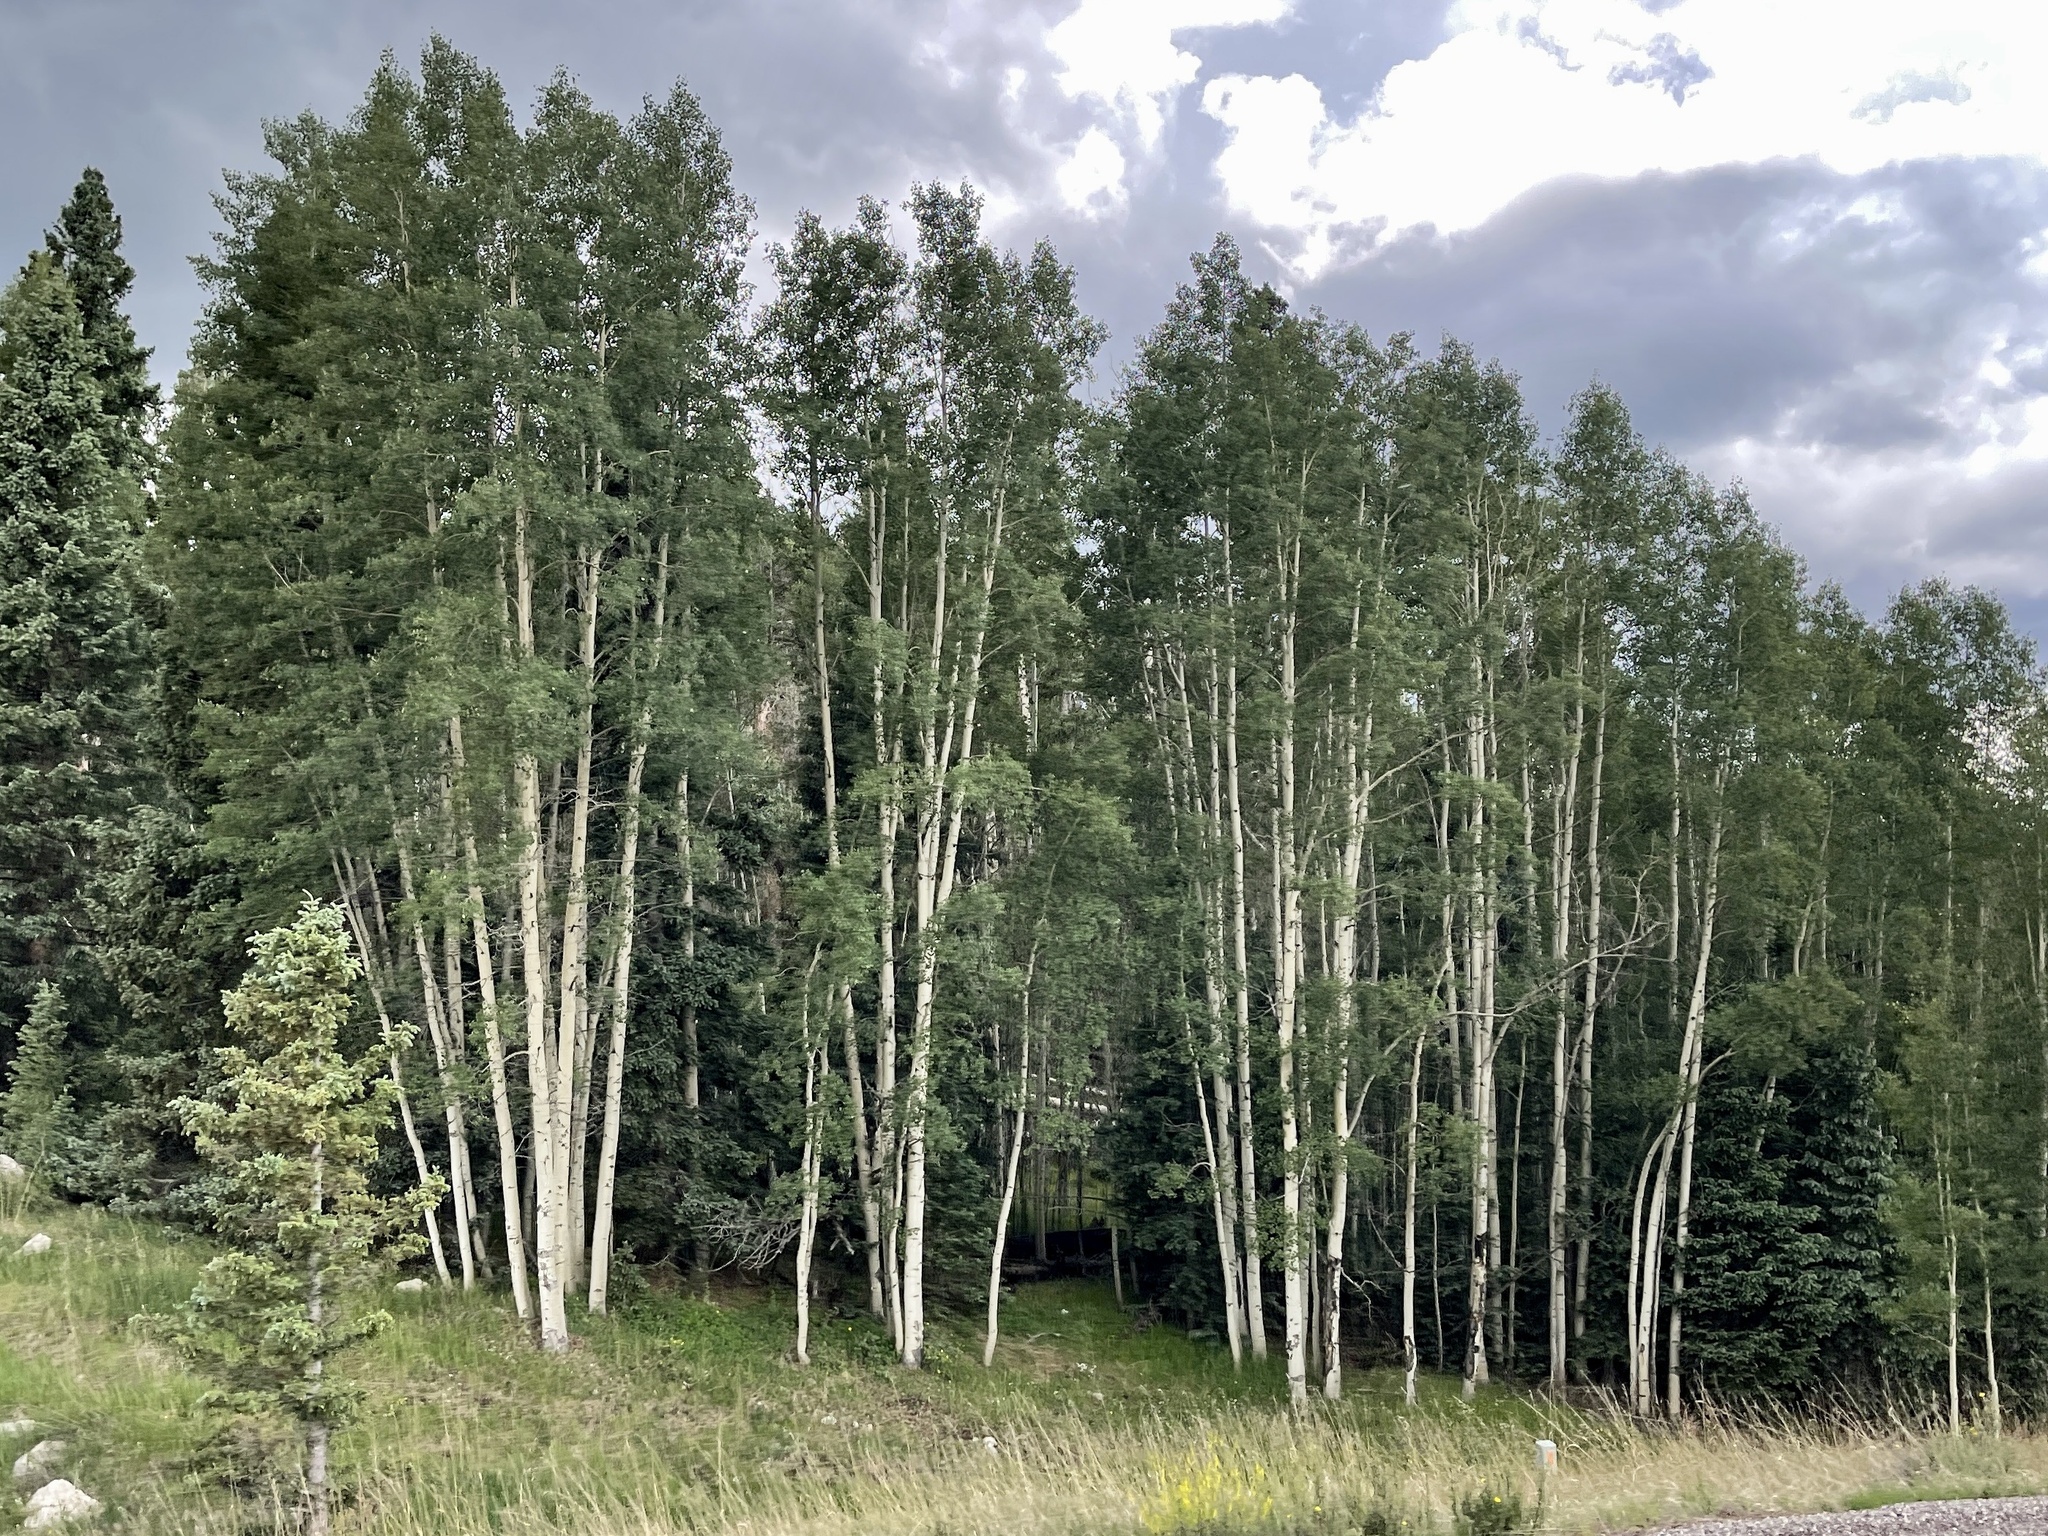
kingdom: Plantae
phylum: Tracheophyta
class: Magnoliopsida
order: Malpighiales
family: Salicaceae
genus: Populus
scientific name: Populus tremuloides
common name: Quaking aspen
